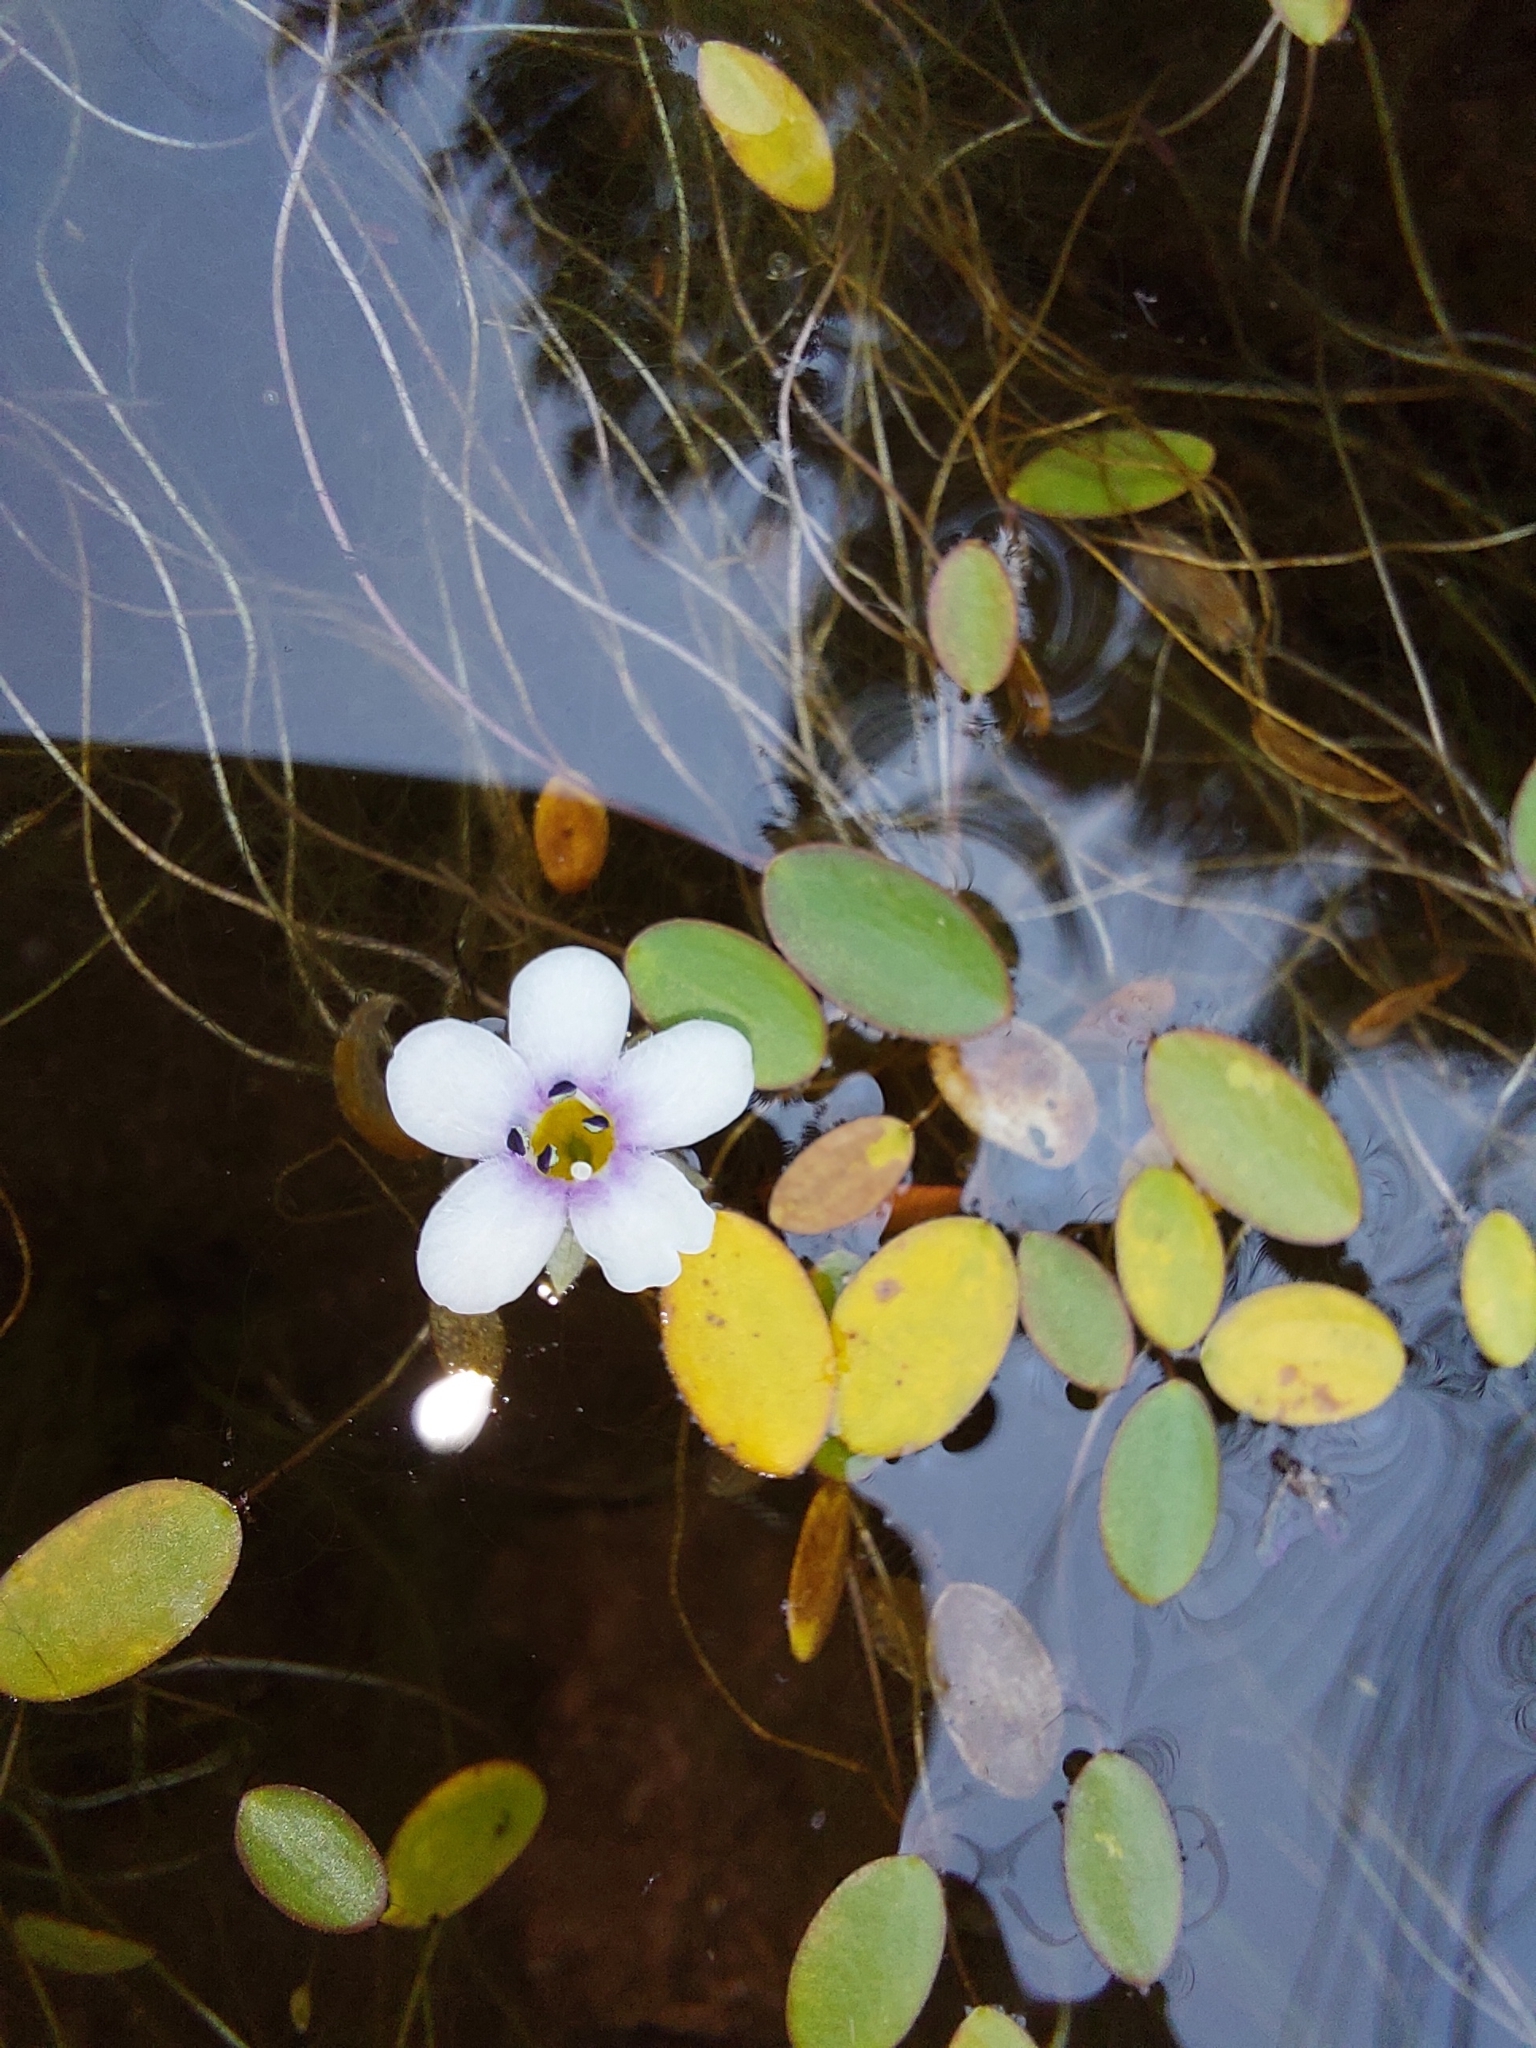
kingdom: Plantae
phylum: Tracheophyta
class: Magnoliopsida
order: Lamiales
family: Scrophulariaceae
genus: Limosella
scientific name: Limosella inflata
